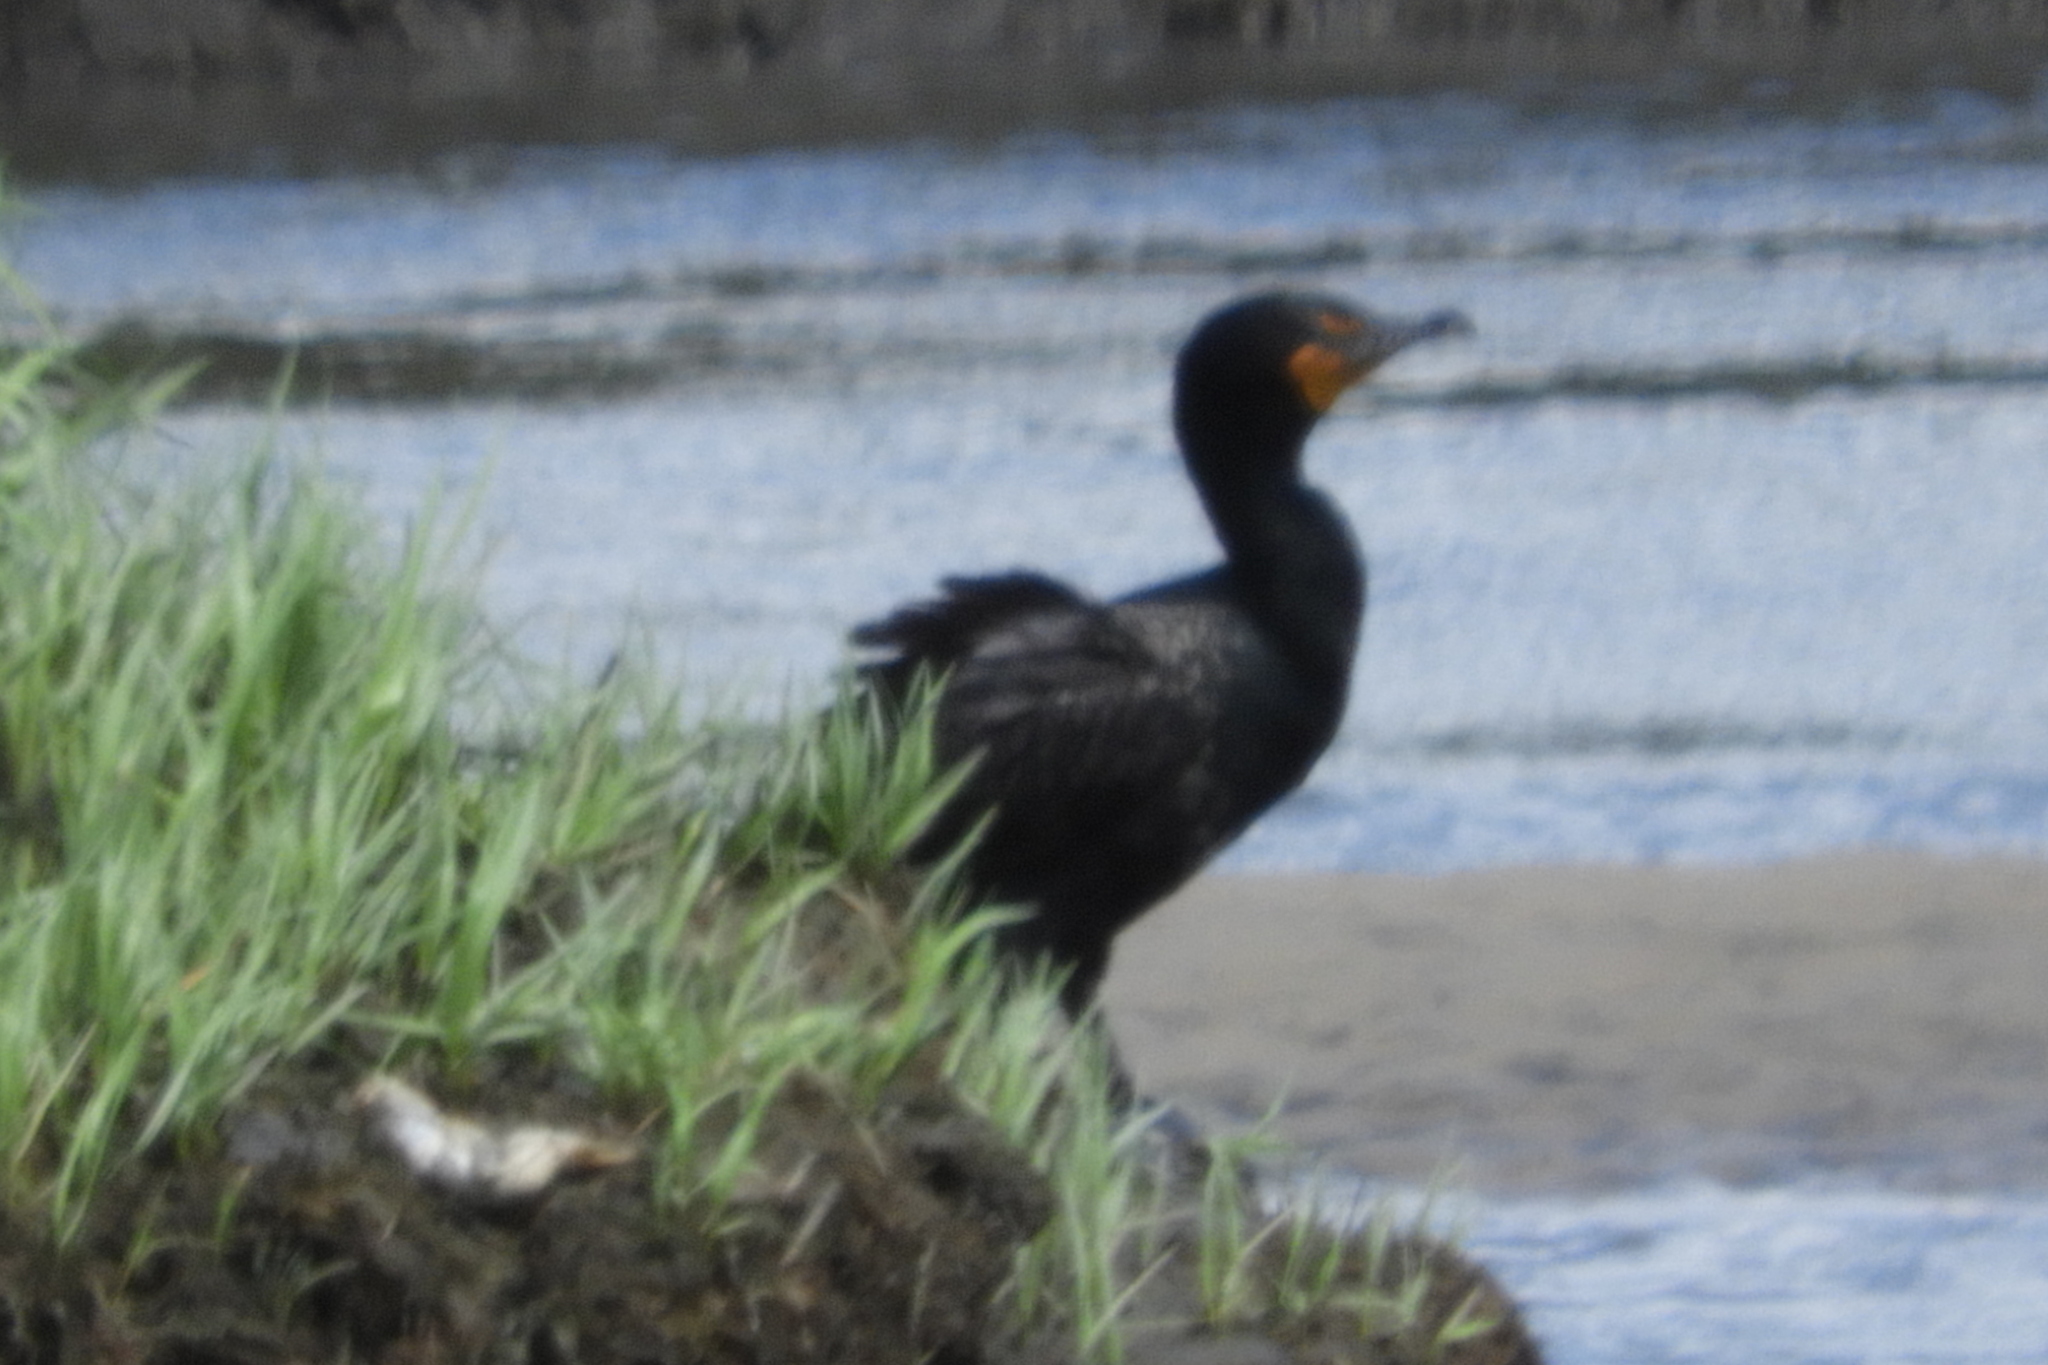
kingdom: Animalia
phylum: Chordata
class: Aves
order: Suliformes
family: Phalacrocoracidae
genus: Phalacrocorax
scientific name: Phalacrocorax auritus
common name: Double-crested cormorant
